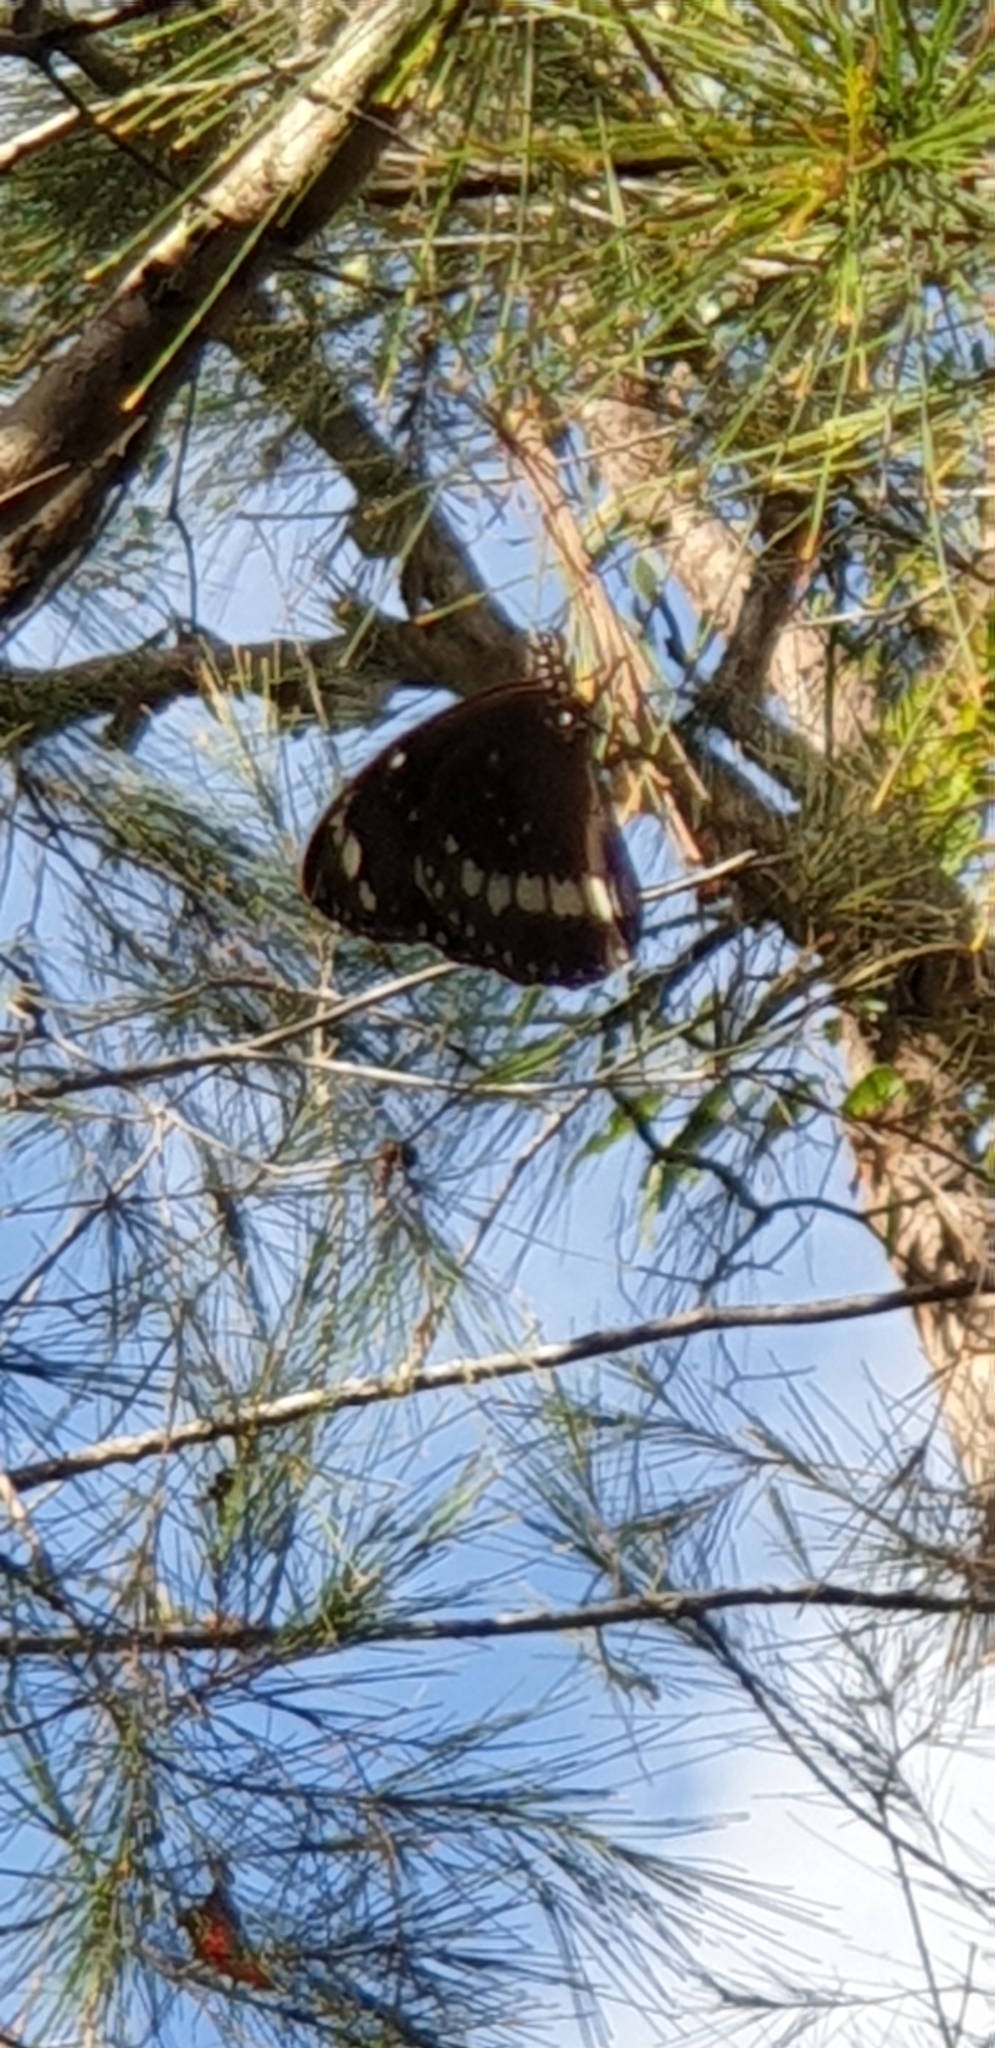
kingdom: Animalia
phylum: Arthropoda
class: Insecta
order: Lepidoptera
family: Nymphalidae
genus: Euploea
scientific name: Euploea core
